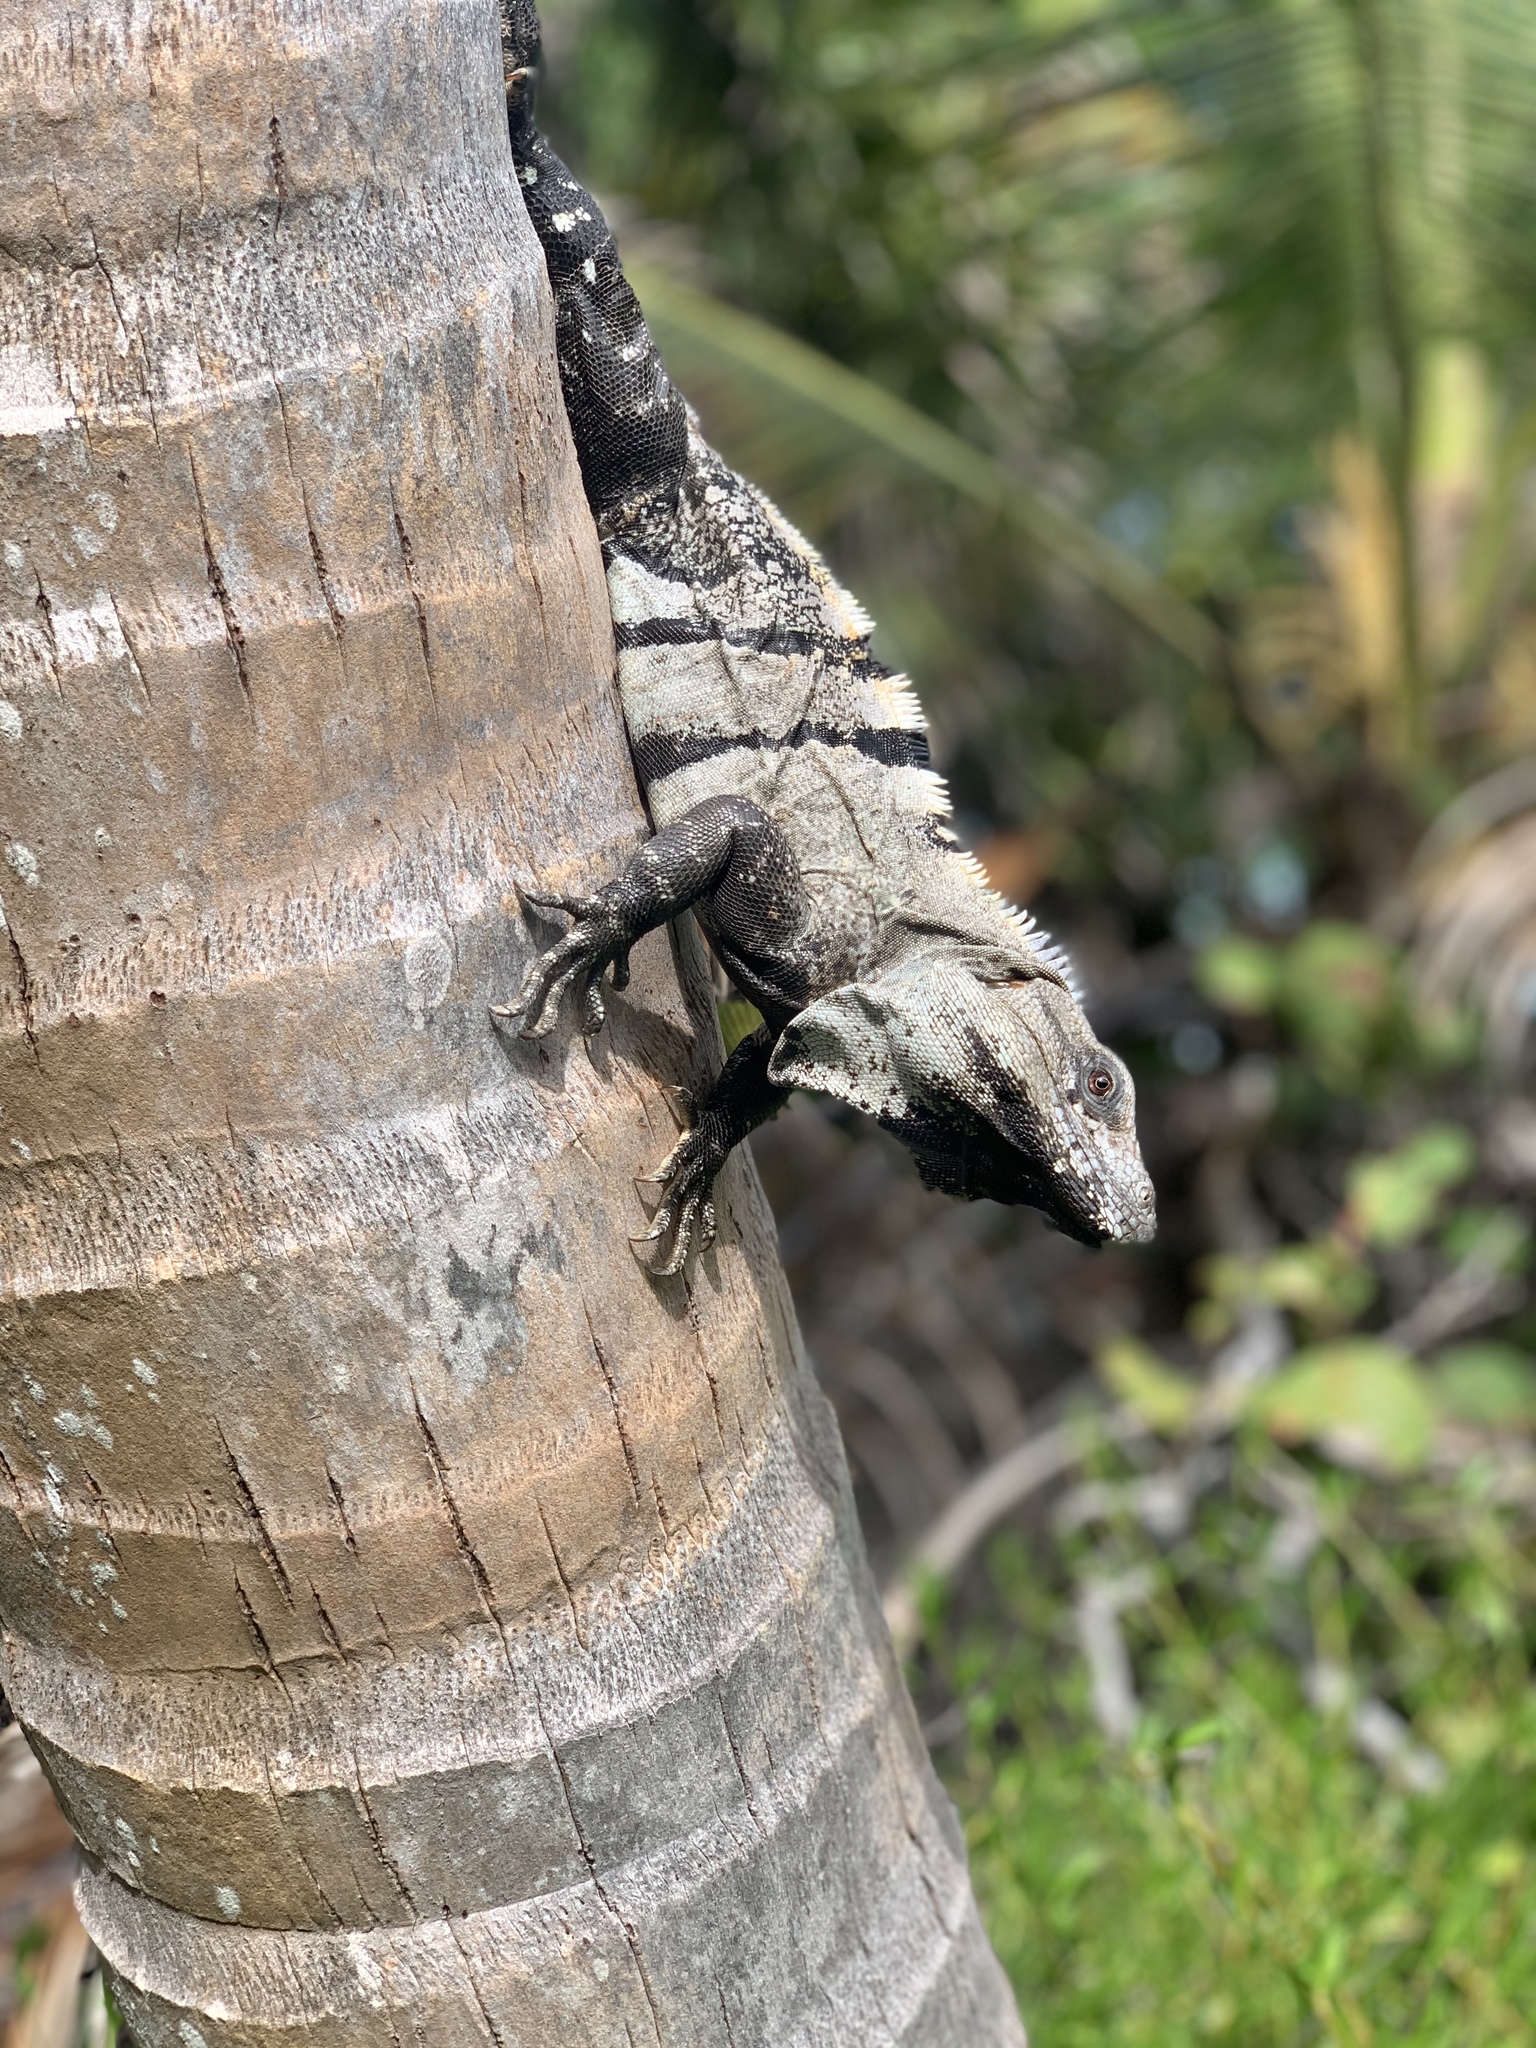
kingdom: Animalia
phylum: Chordata
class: Squamata
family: Iguanidae
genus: Ctenosaura
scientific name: Ctenosaura similis
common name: Black spiny-tailed iguana
